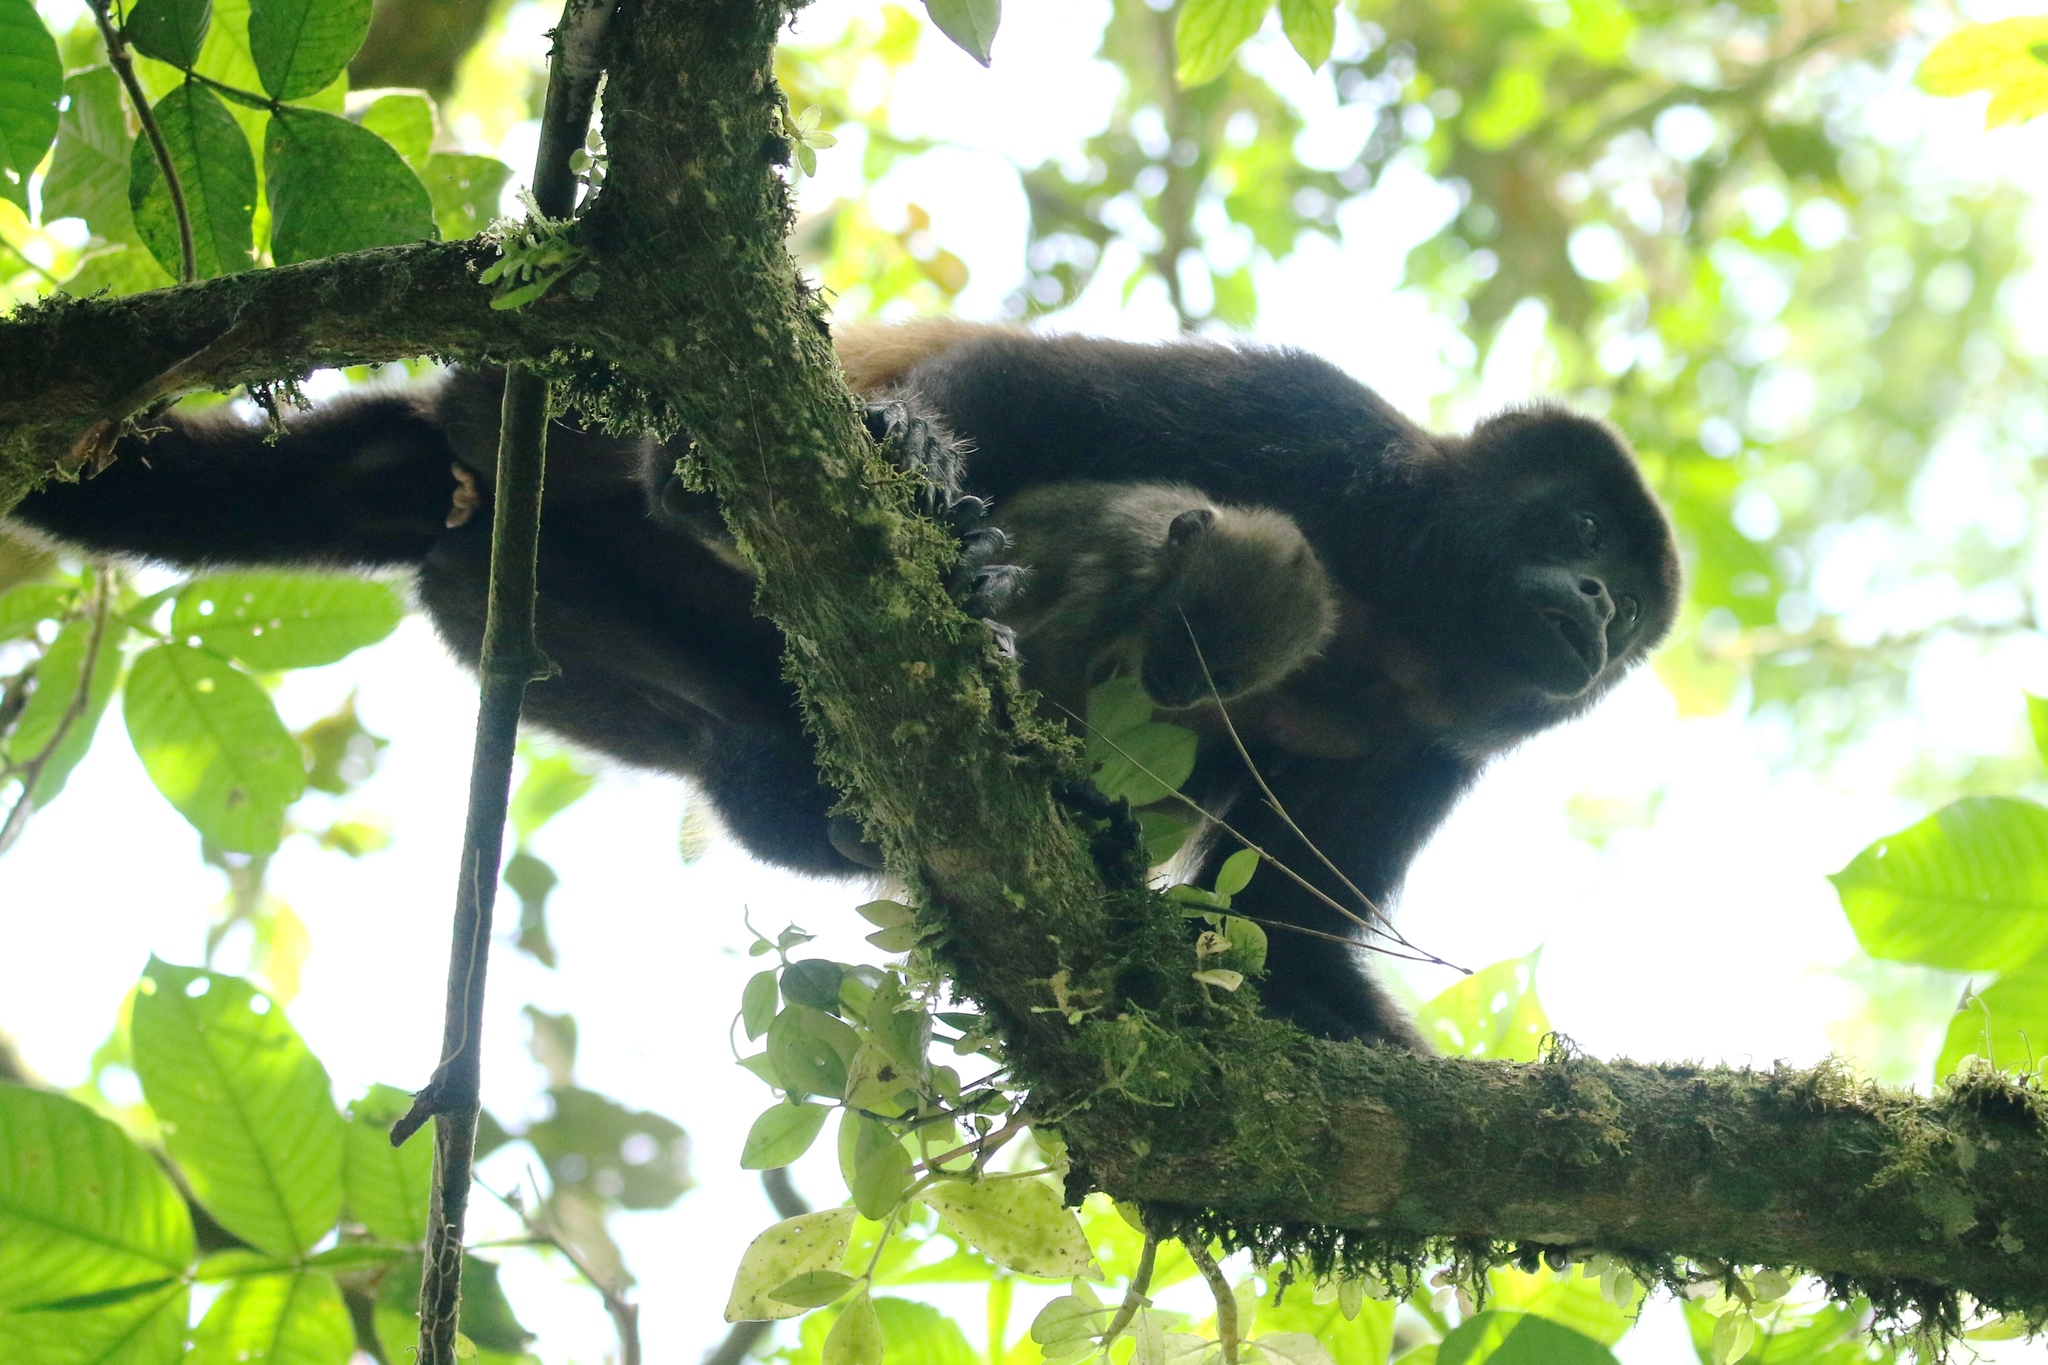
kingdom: Animalia
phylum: Chordata
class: Mammalia
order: Primates
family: Atelidae
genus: Alouatta
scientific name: Alouatta palliata
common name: Mantled howler
